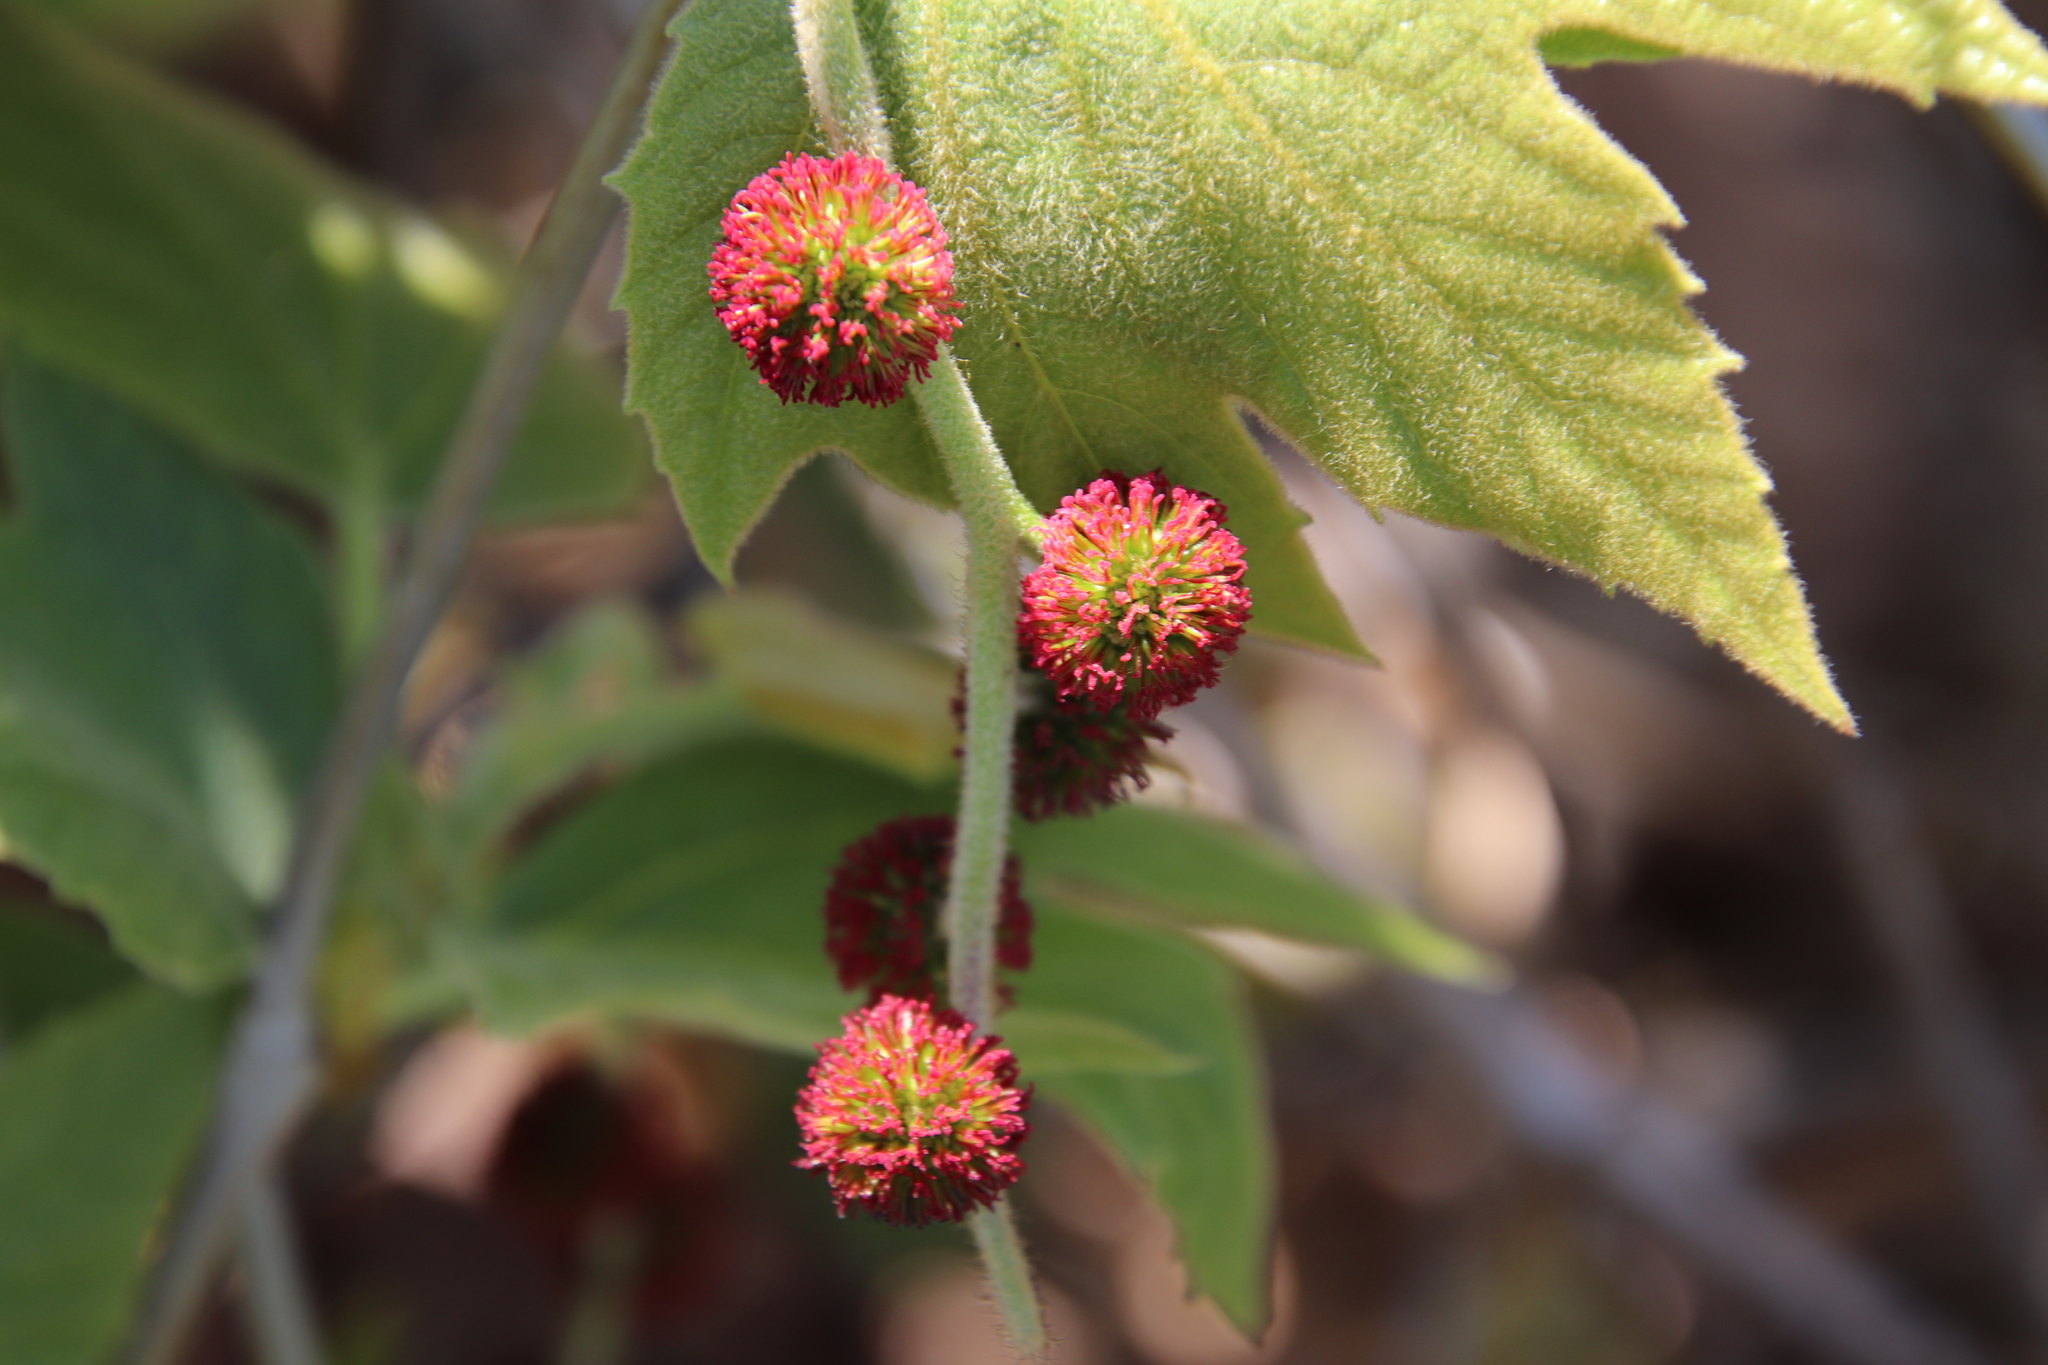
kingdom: Plantae
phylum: Tracheophyta
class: Magnoliopsida
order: Proteales
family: Platanaceae
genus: Platanus
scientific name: Platanus racemosa
